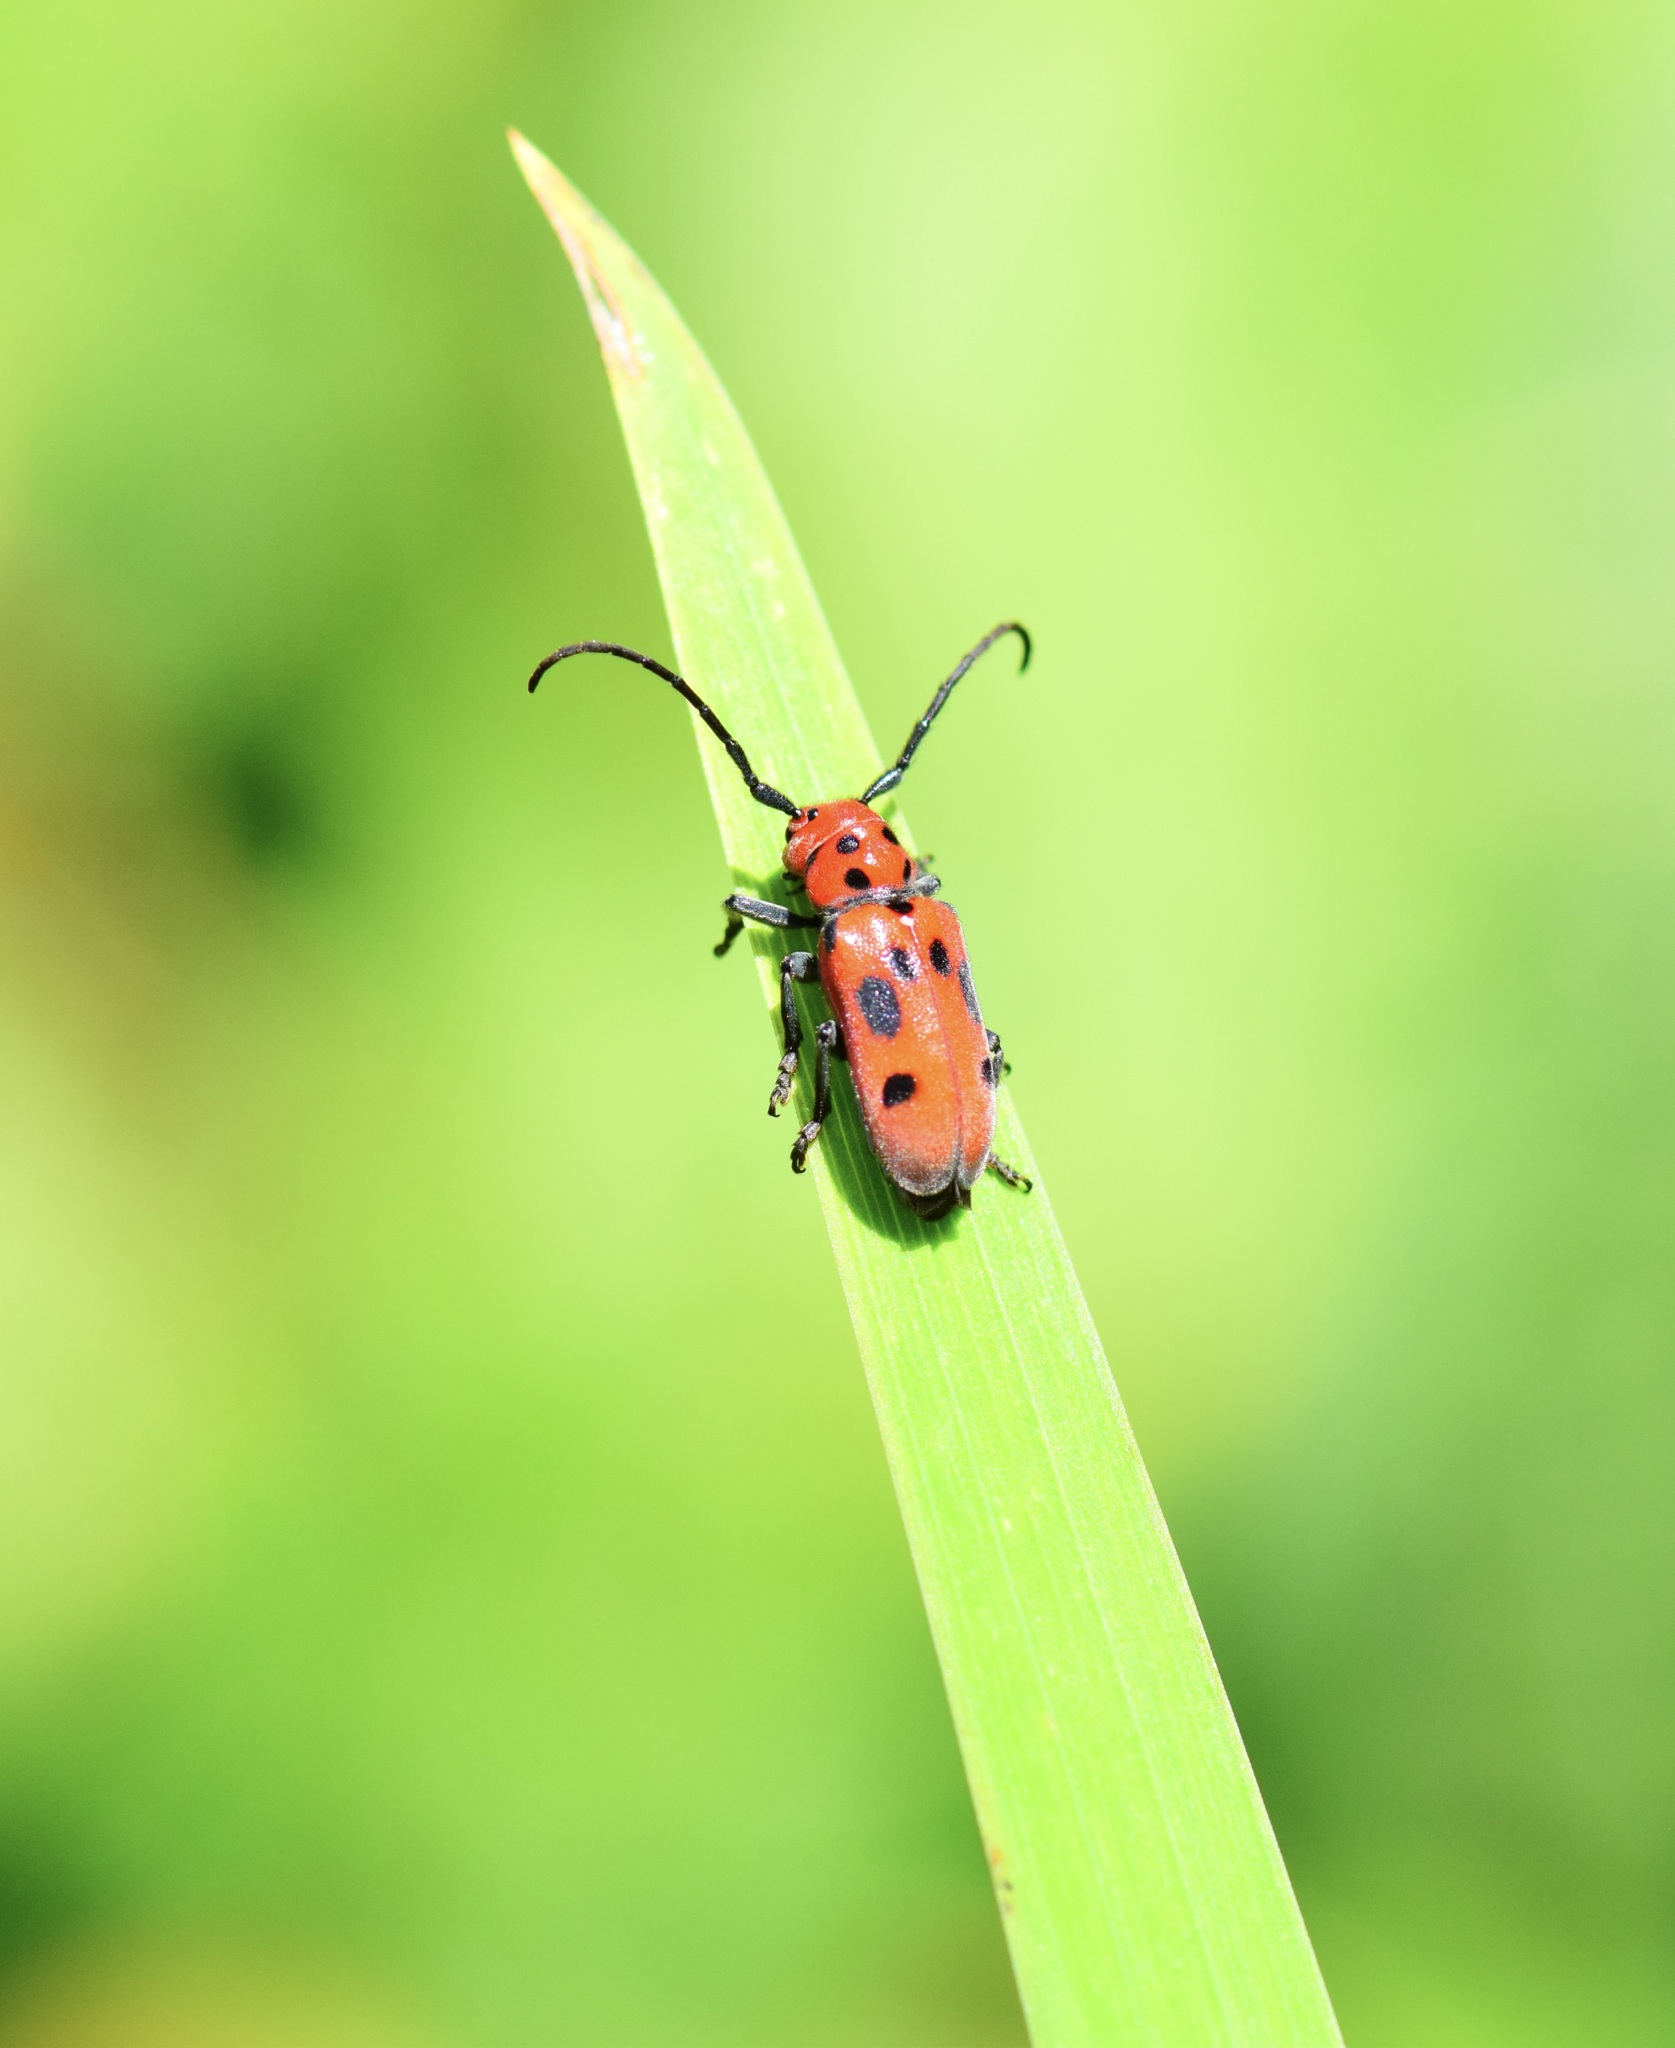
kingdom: Animalia
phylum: Arthropoda
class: Insecta
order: Coleoptera
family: Cerambycidae
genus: Tetraopes
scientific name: Tetraopes tetrophthalmus
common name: Red milkweed beetle
